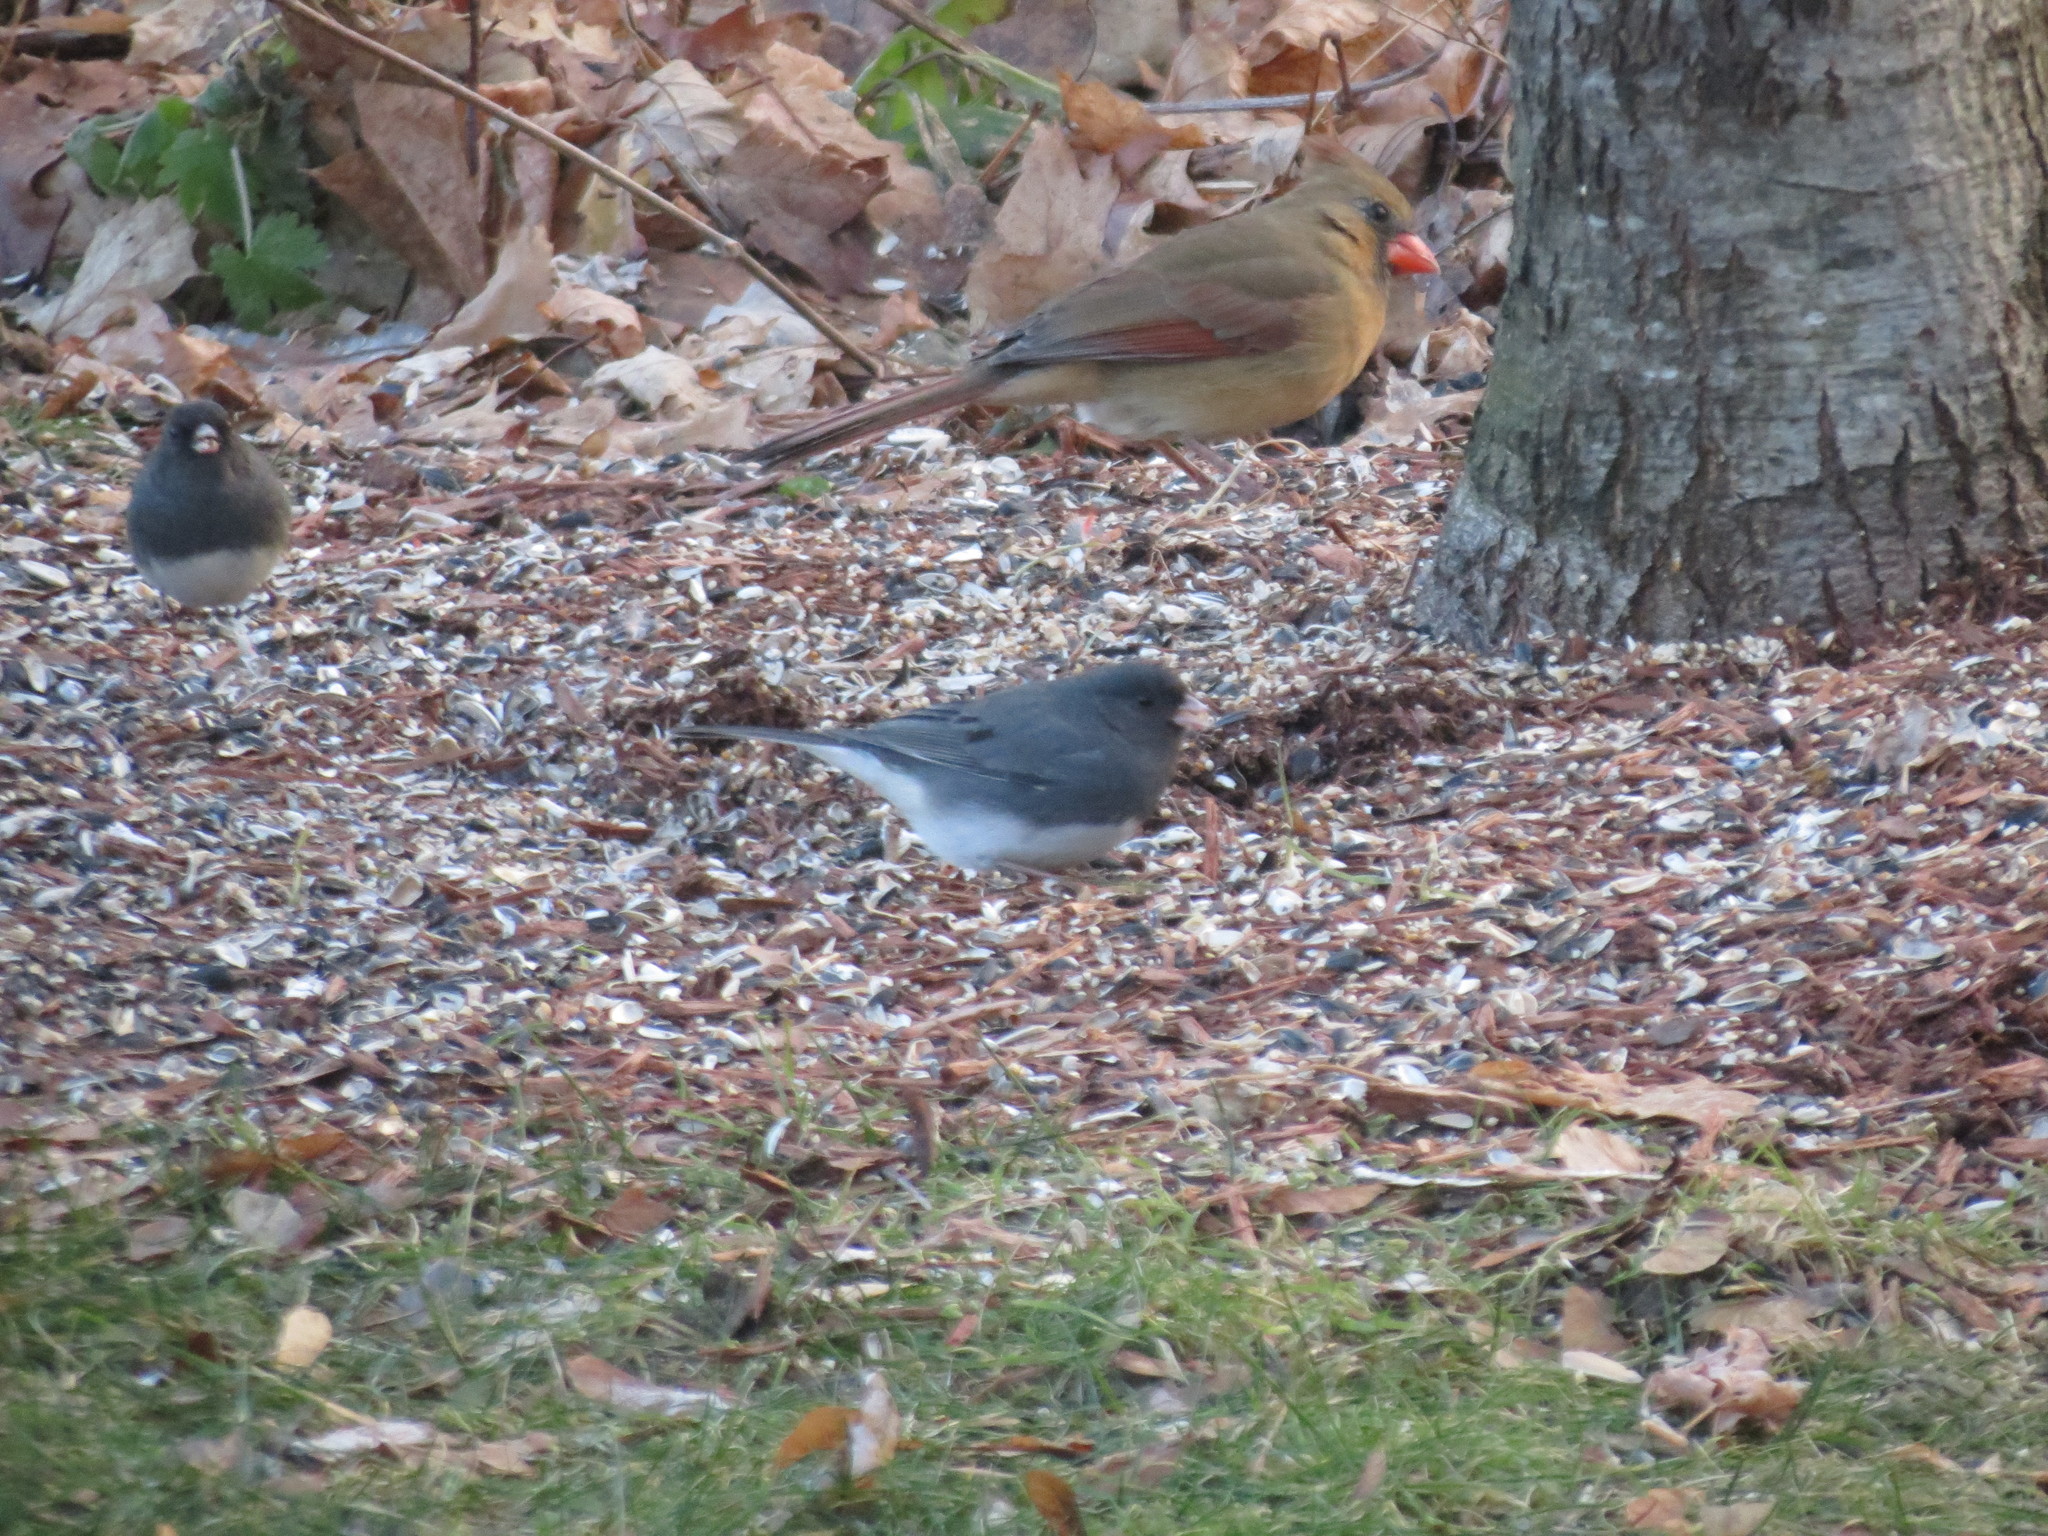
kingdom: Animalia
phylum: Chordata
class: Aves
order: Passeriformes
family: Passerellidae
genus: Junco
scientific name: Junco hyemalis
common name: Dark-eyed junco
